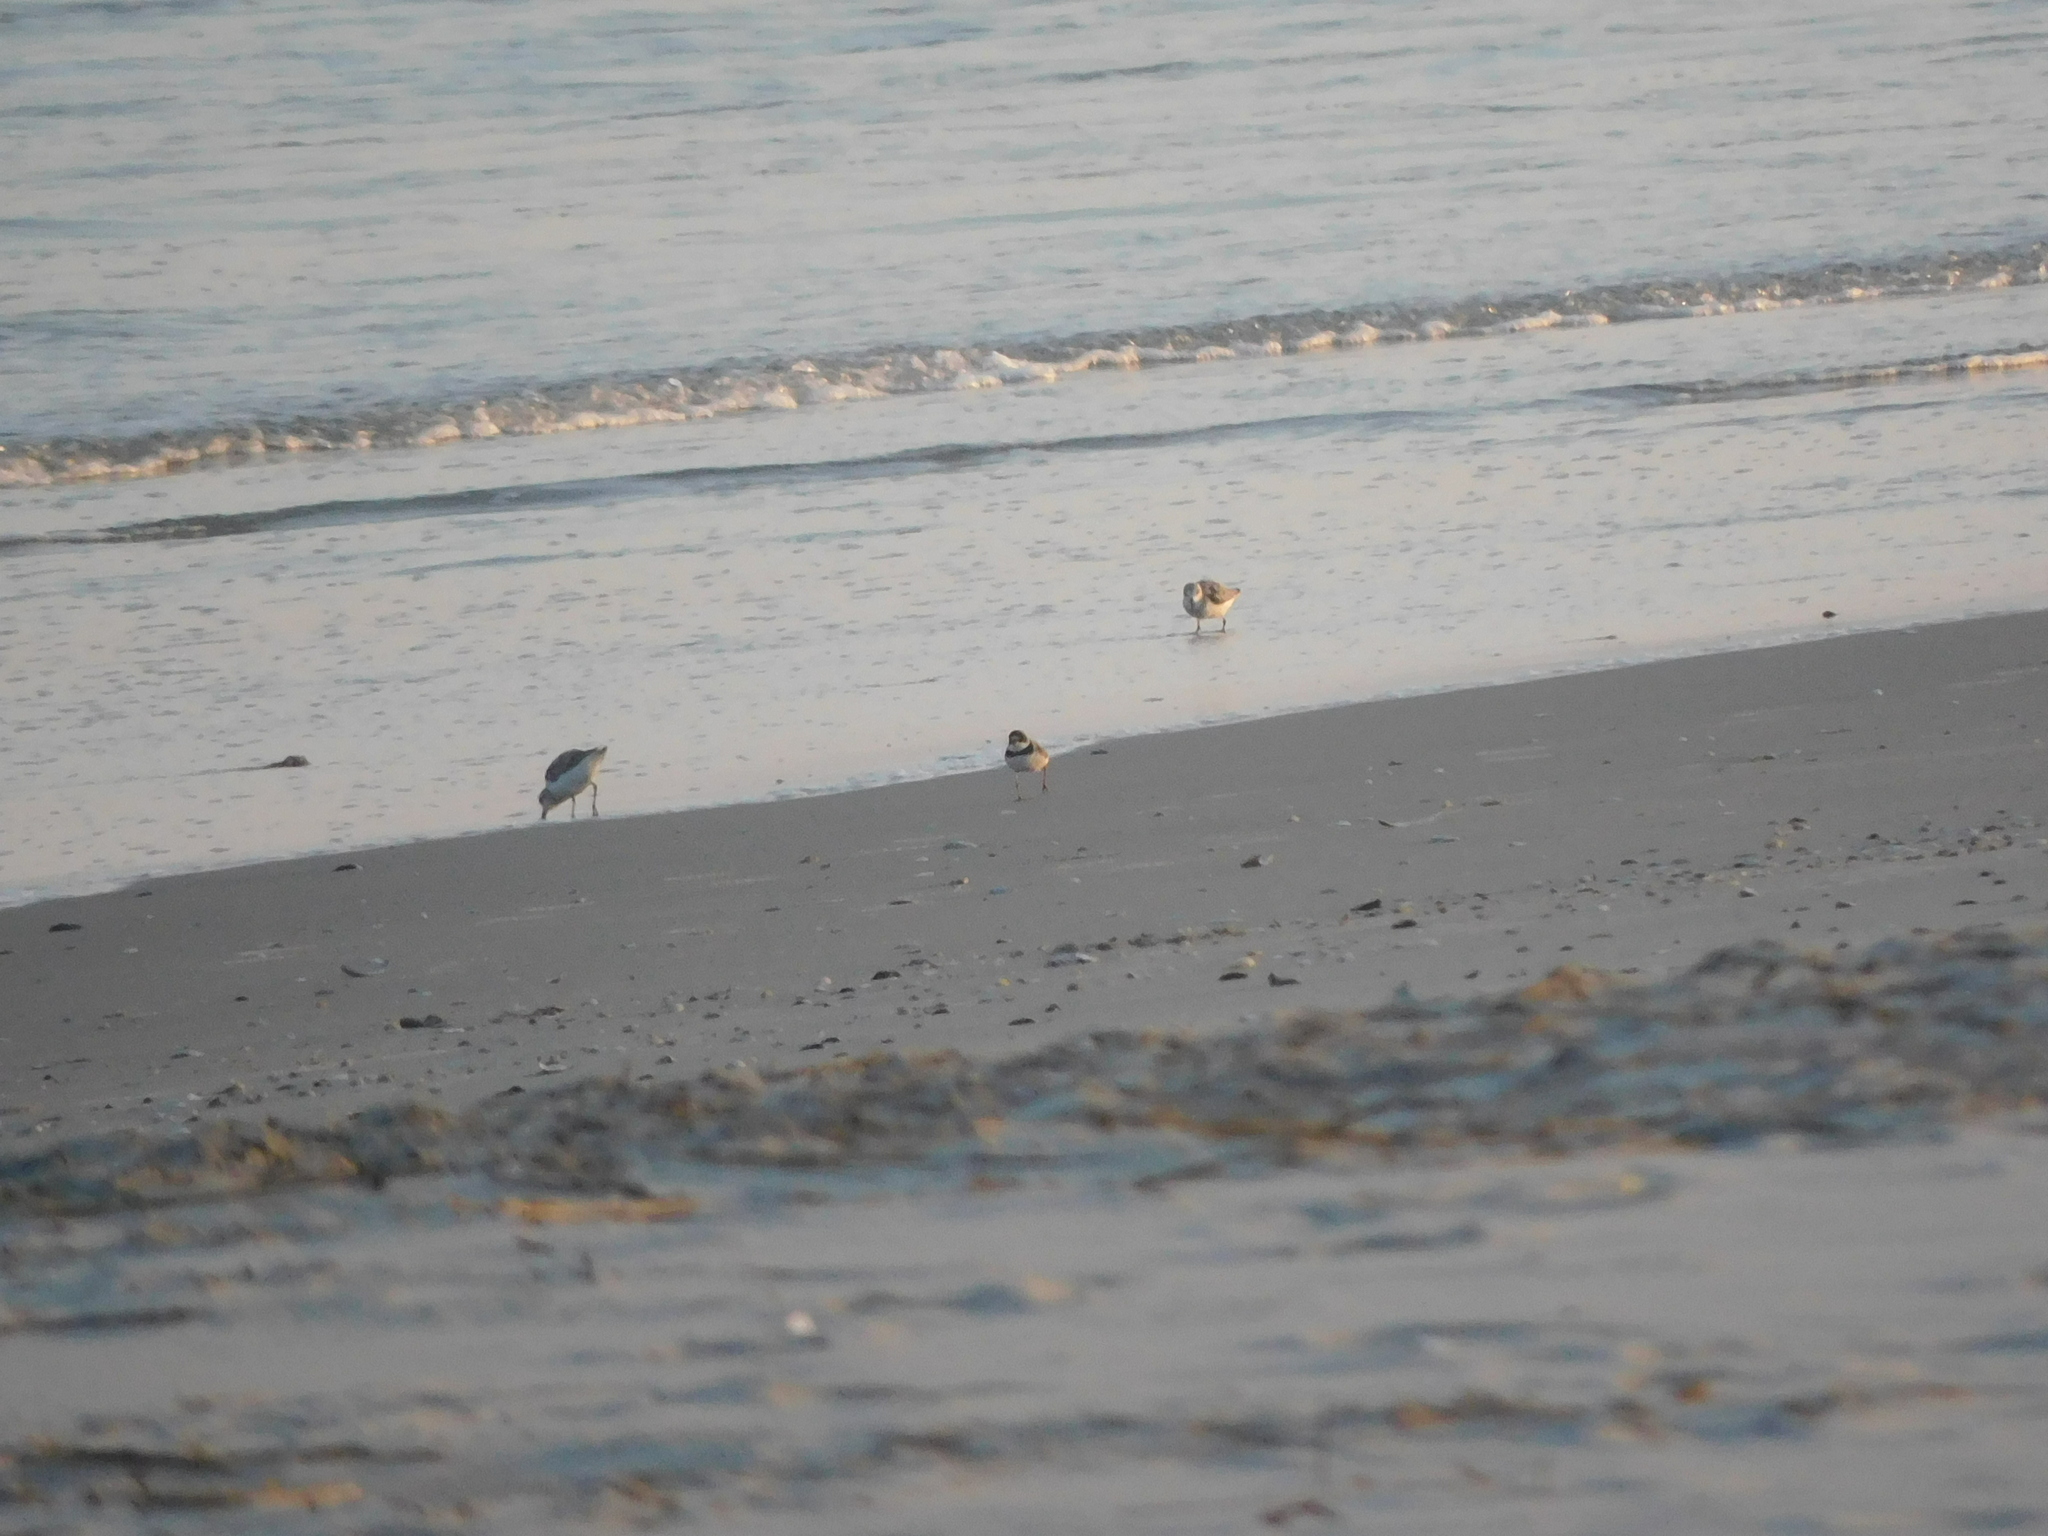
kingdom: Animalia
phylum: Chordata
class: Aves
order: Charadriiformes
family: Charadriidae
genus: Charadrius
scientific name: Charadrius semipalmatus
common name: Semipalmated plover
